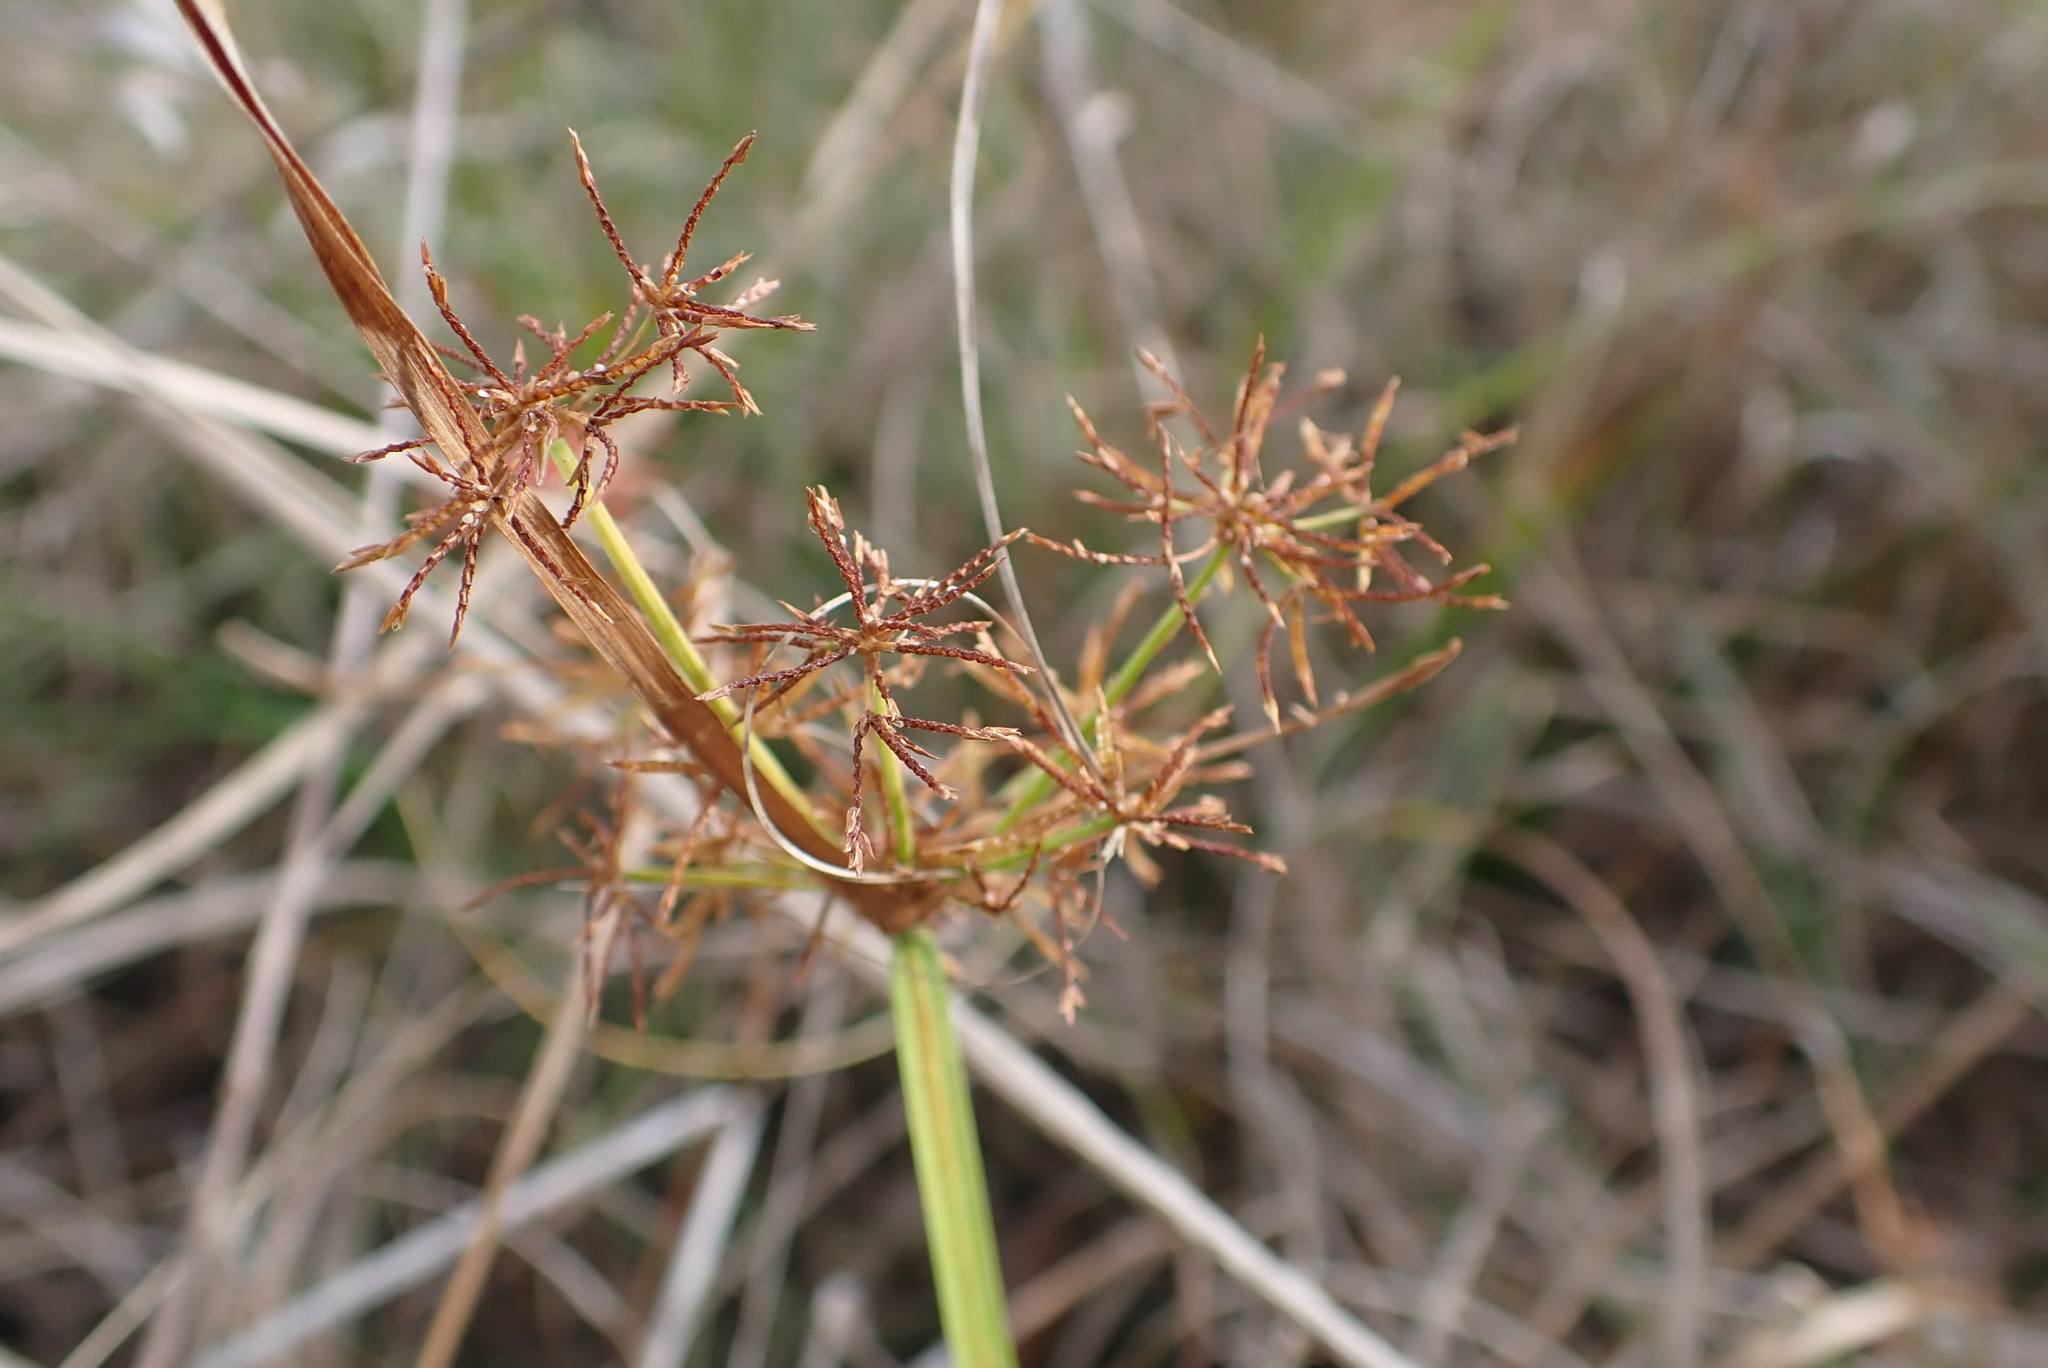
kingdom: Plantae
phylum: Tracheophyta
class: Liliopsida
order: Poales
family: Cyperaceae
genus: Cyperus
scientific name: Cyperus haspan
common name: Haspan flatsedge
